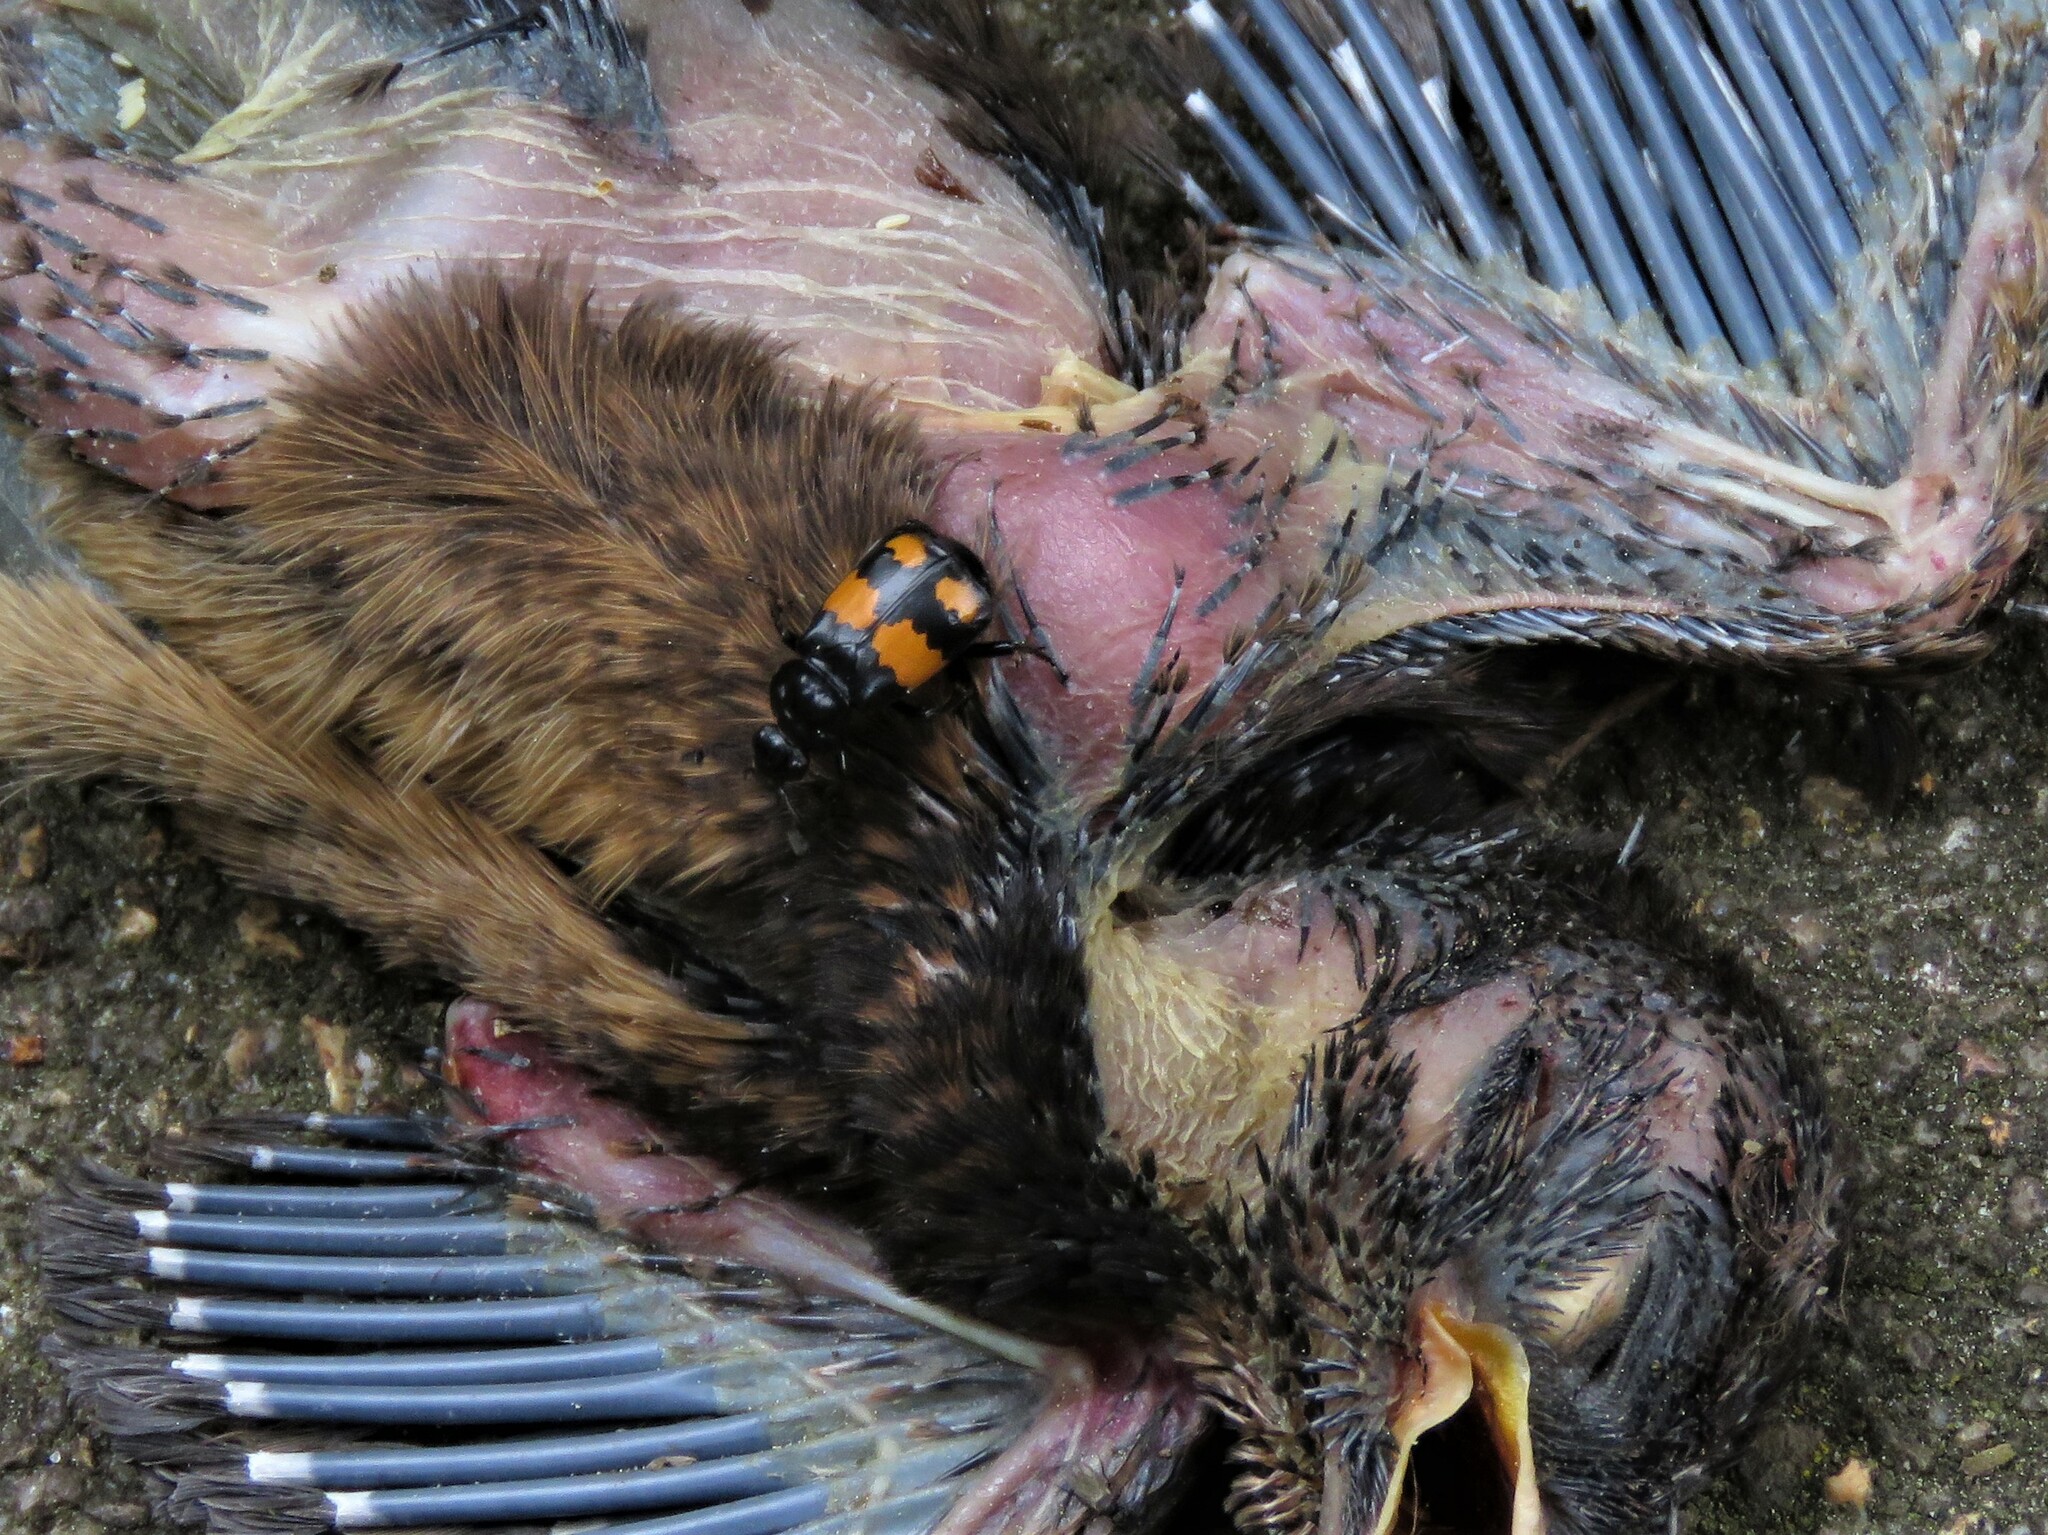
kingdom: Animalia
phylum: Arthropoda
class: Insecta
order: Coleoptera
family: Staphylinidae
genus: Nicrophorus
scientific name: Nicrophorus vespilloides
